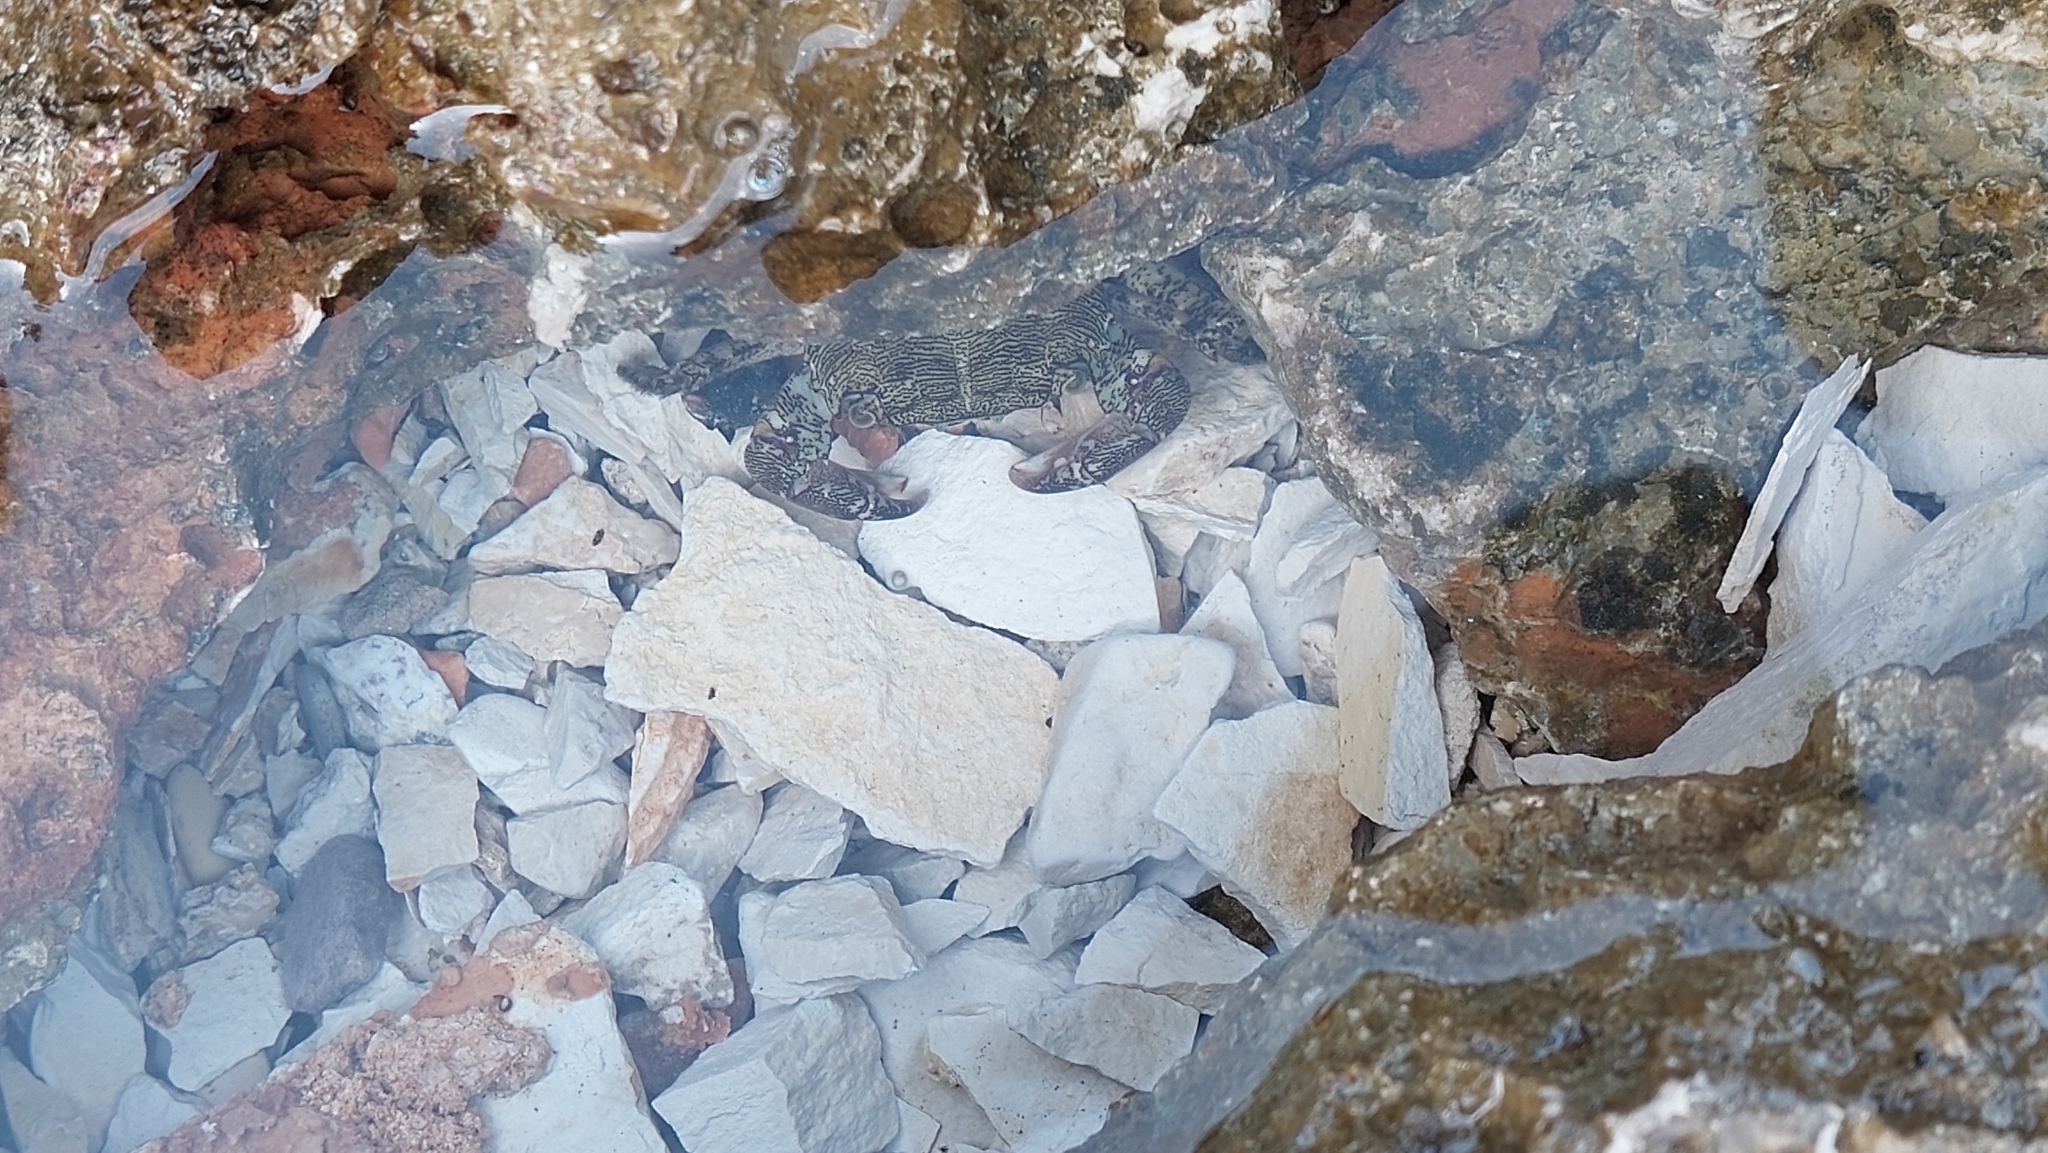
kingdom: Animalia
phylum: Arthropoda
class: Malacostraca
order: Decapoda
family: Grapsidae
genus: Pachygrapsus
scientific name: Pachygrapsus marmoratus
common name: Marbled rock crab
